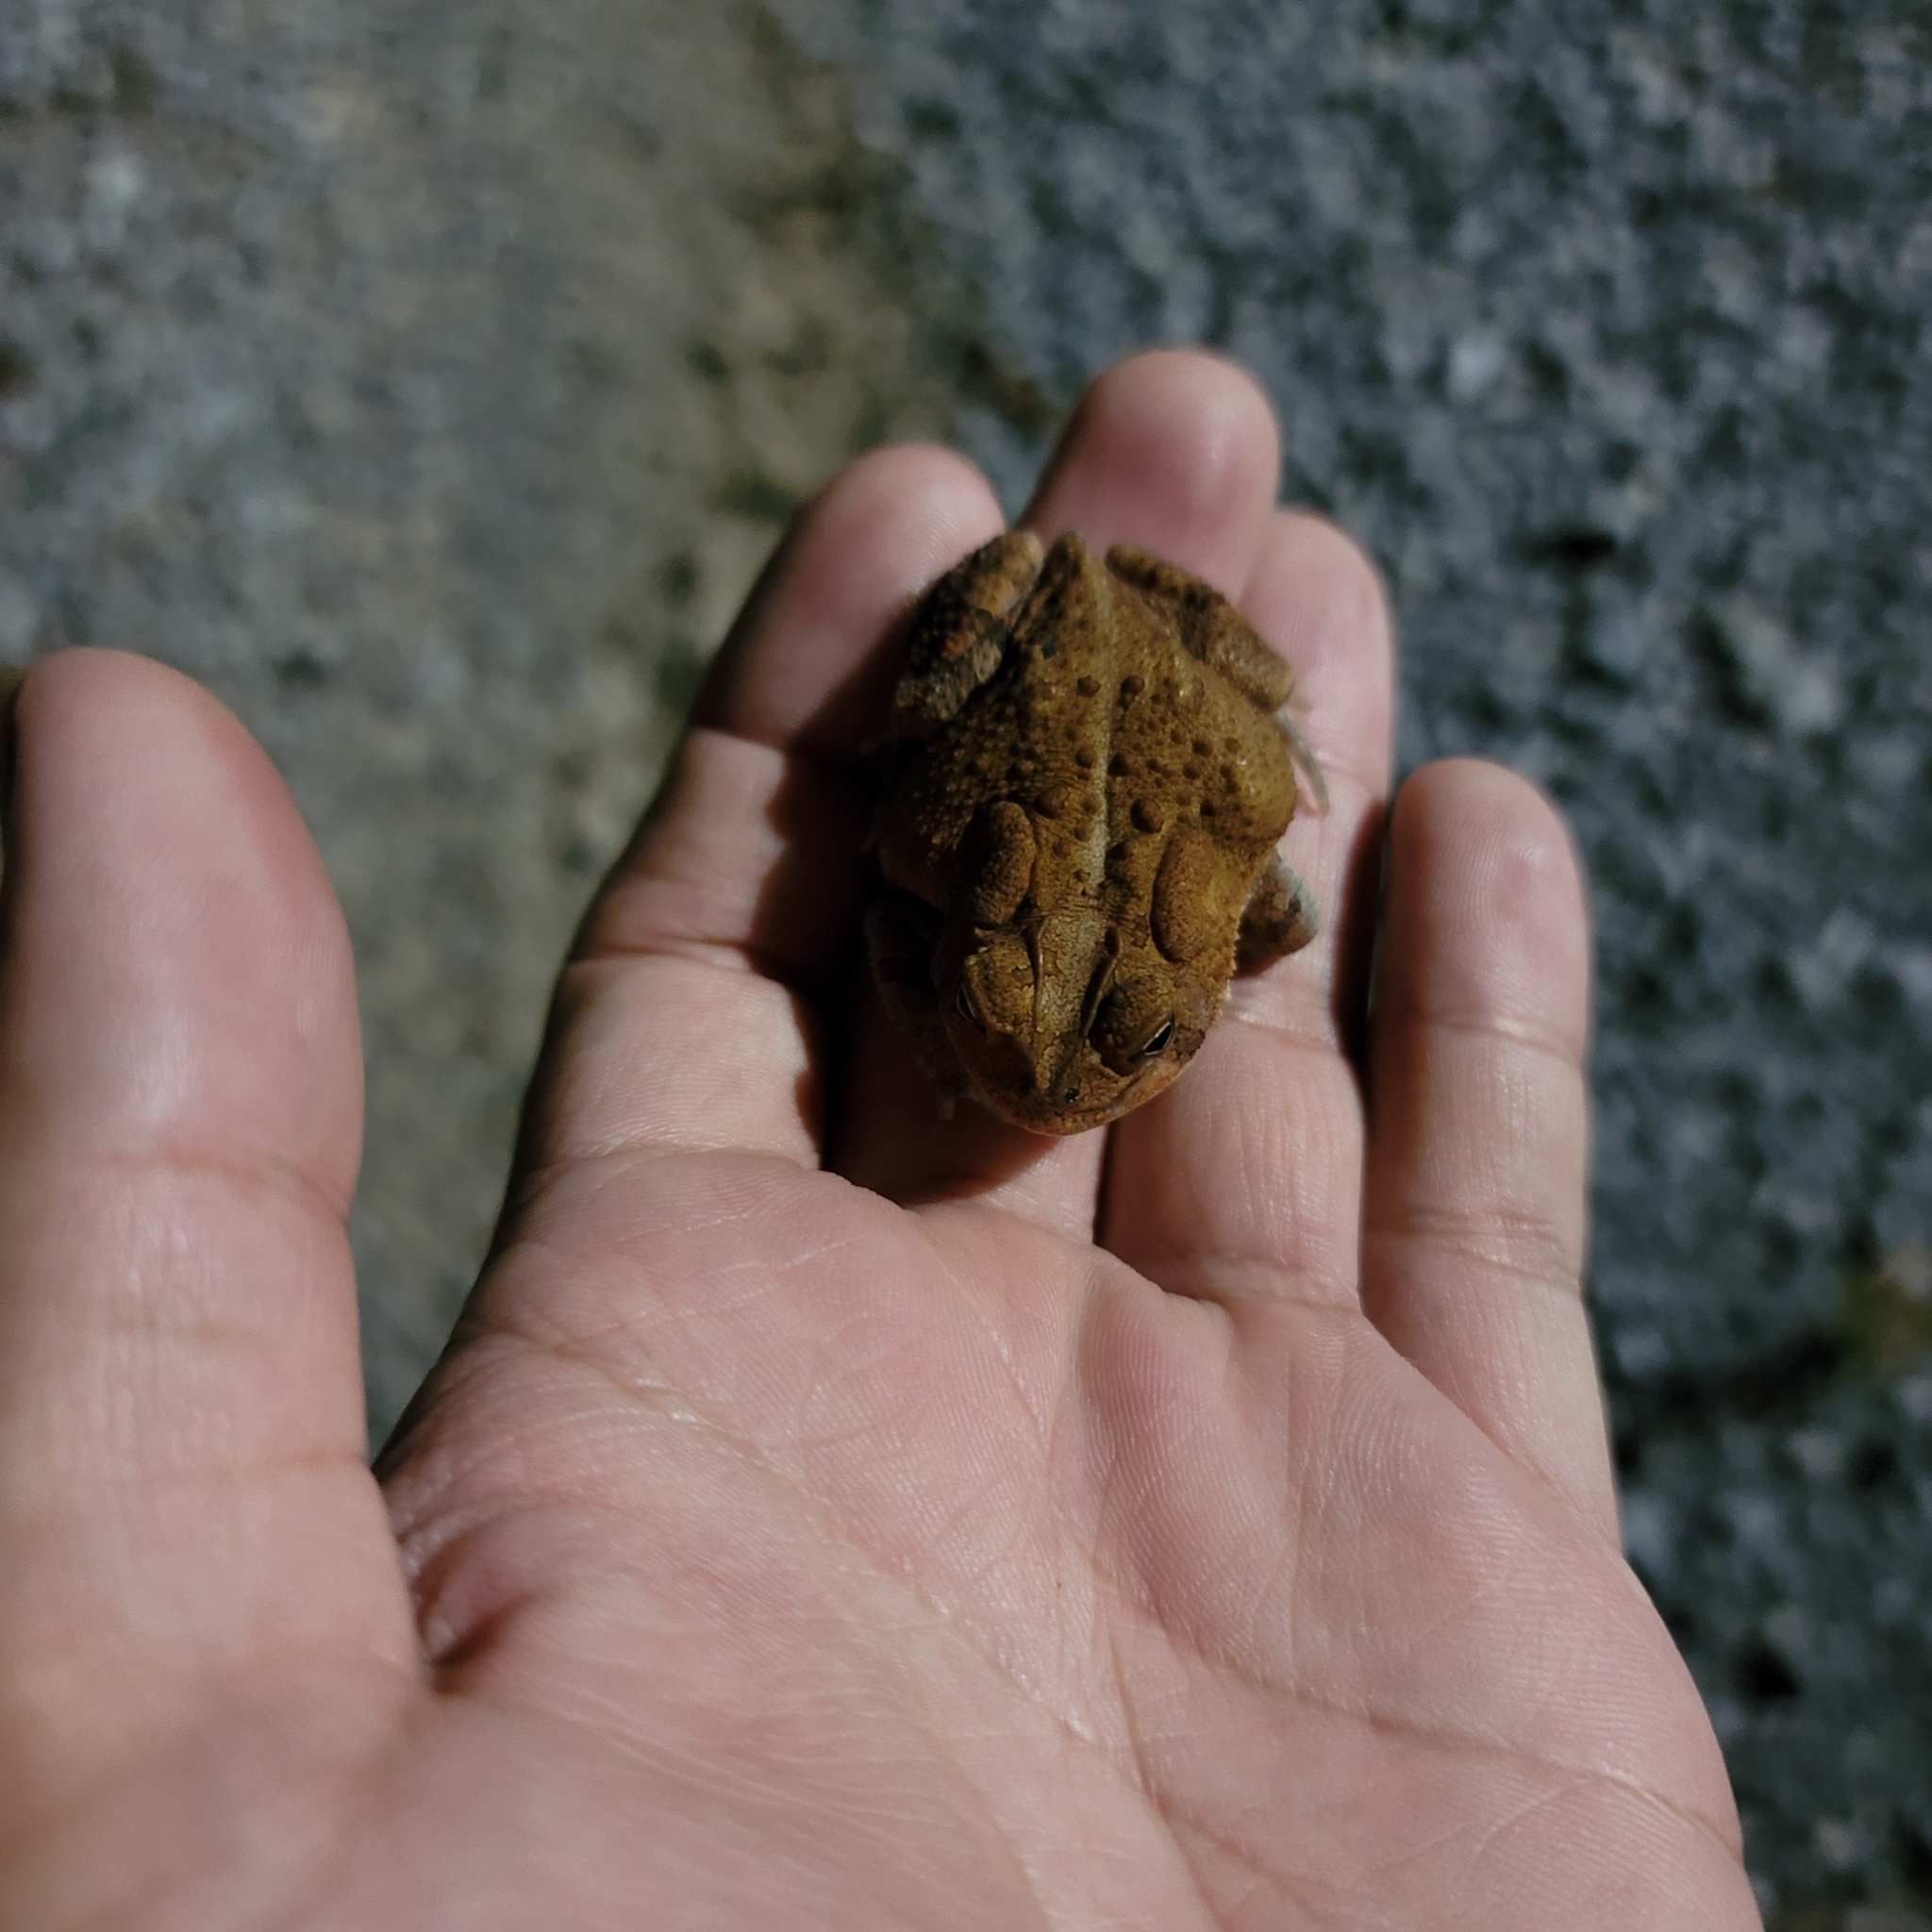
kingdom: Animalia
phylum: Chordata
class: Amphibia
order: Anura
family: Bufonidae
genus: Anaxyrus
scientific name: Anaxyrus terrestris
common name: Southern toad
